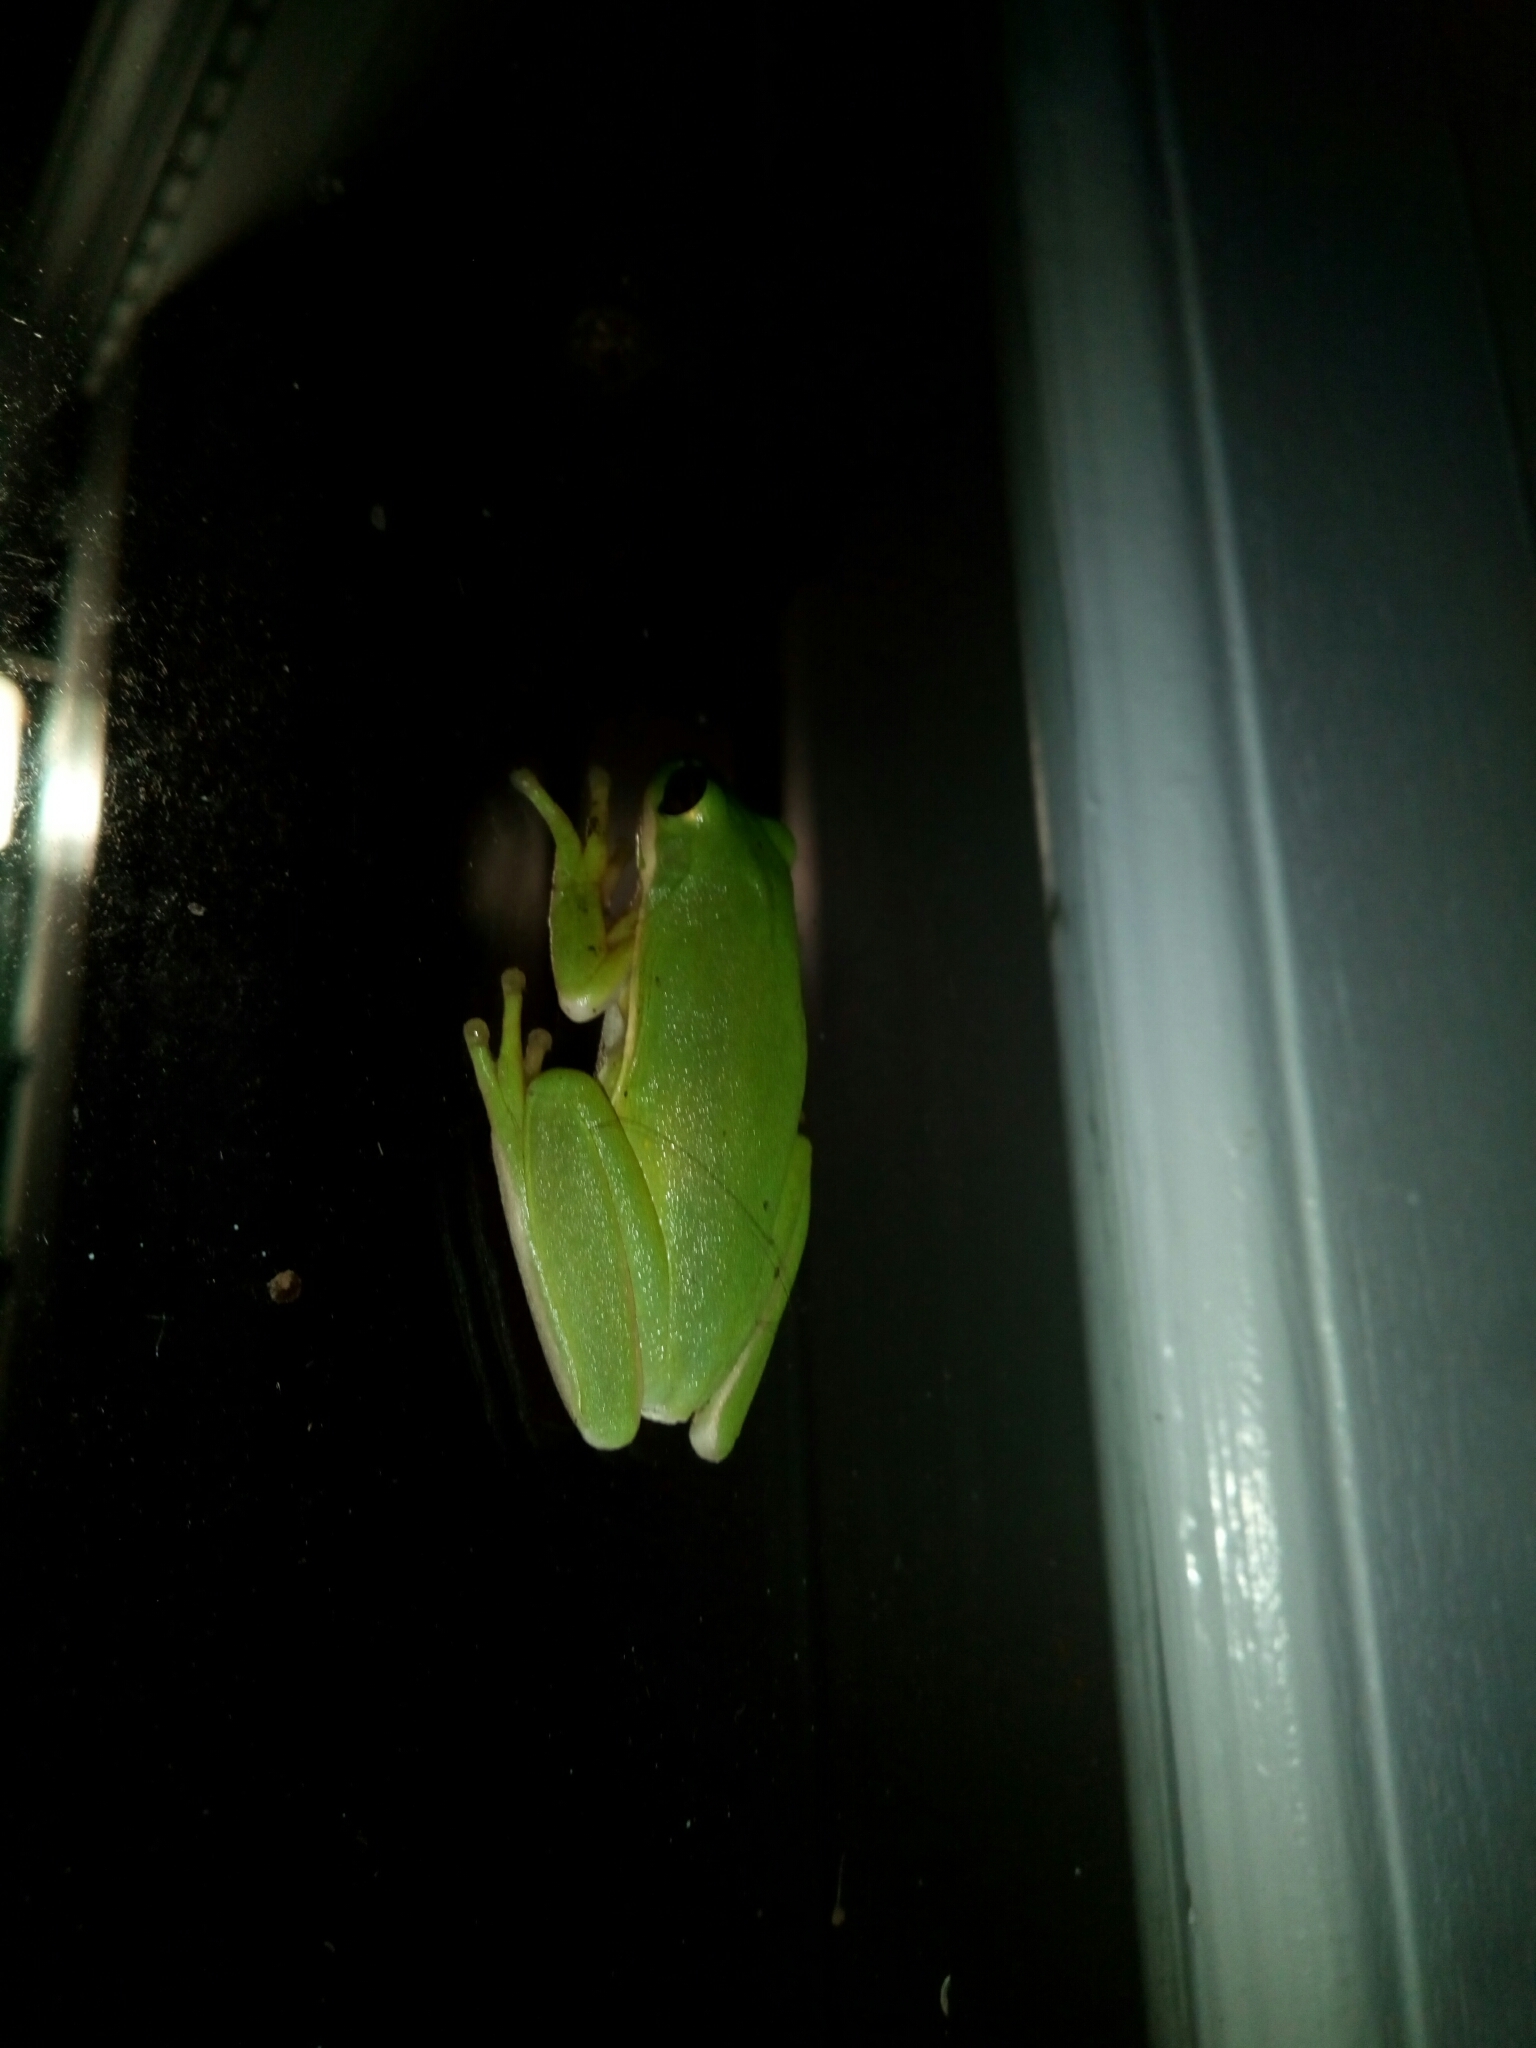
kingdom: Animalia
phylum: Chordata
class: Amphibia
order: Anura
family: Hylidae
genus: Dryophytes
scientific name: Dryophytes cinereus
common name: Green treefrog
